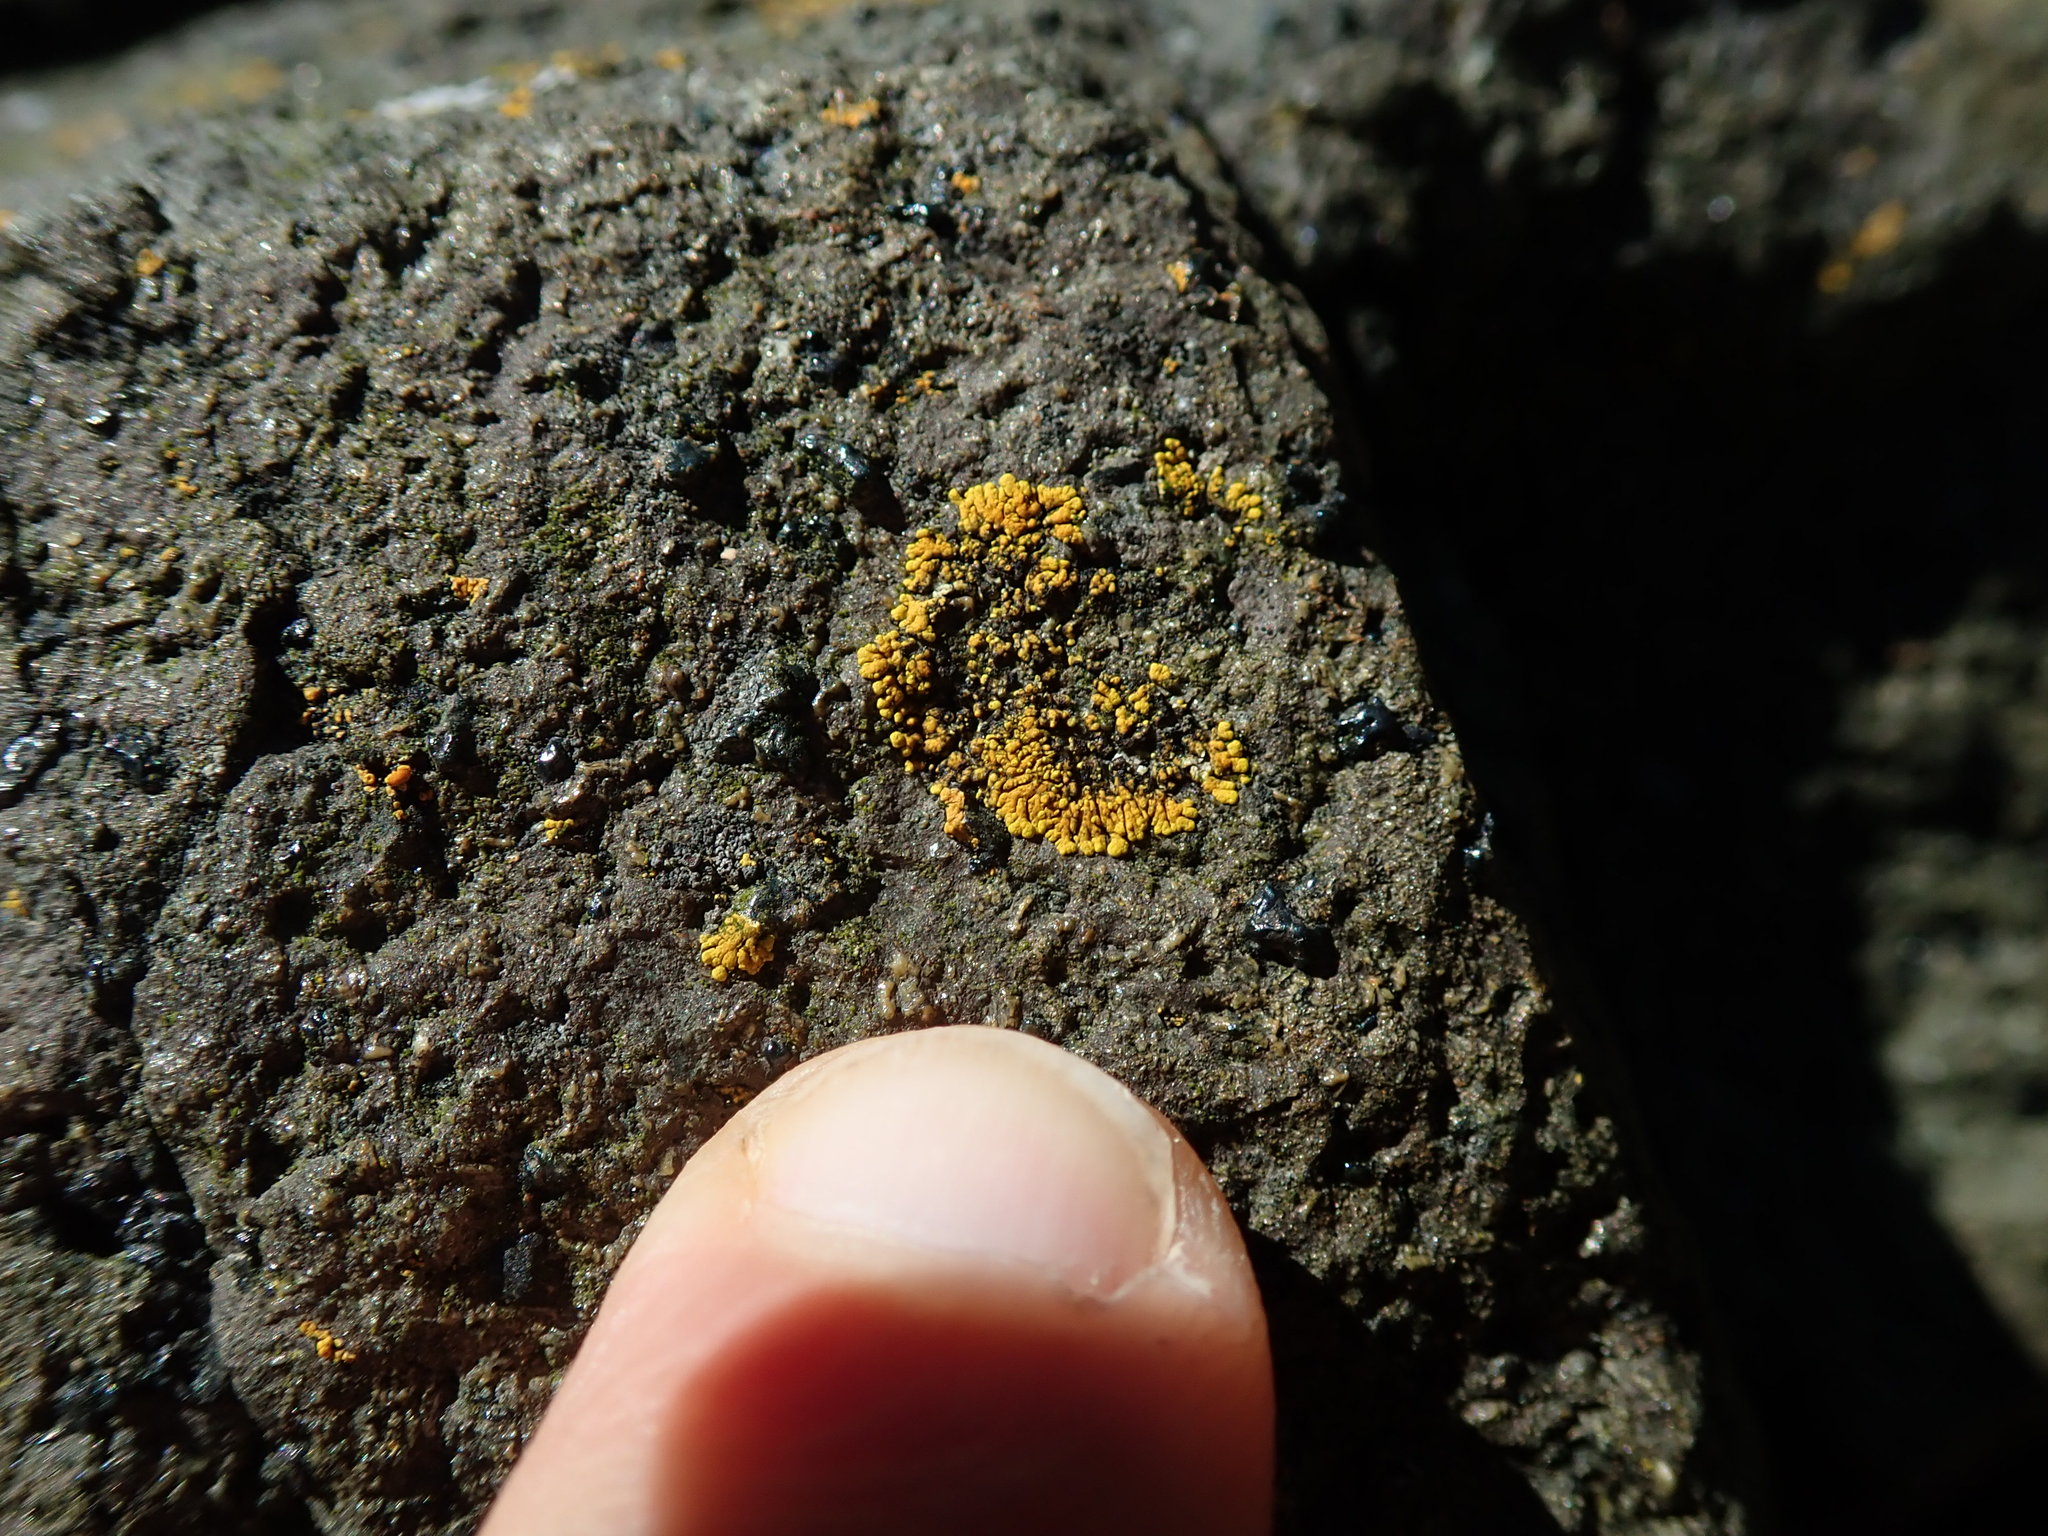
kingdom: Fungi
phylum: Ascomycota
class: Lecanoromycetes
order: Teloschistales
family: Teloschistaceae
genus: Verrucoplaca
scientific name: Verrucoplaca verruculifera
